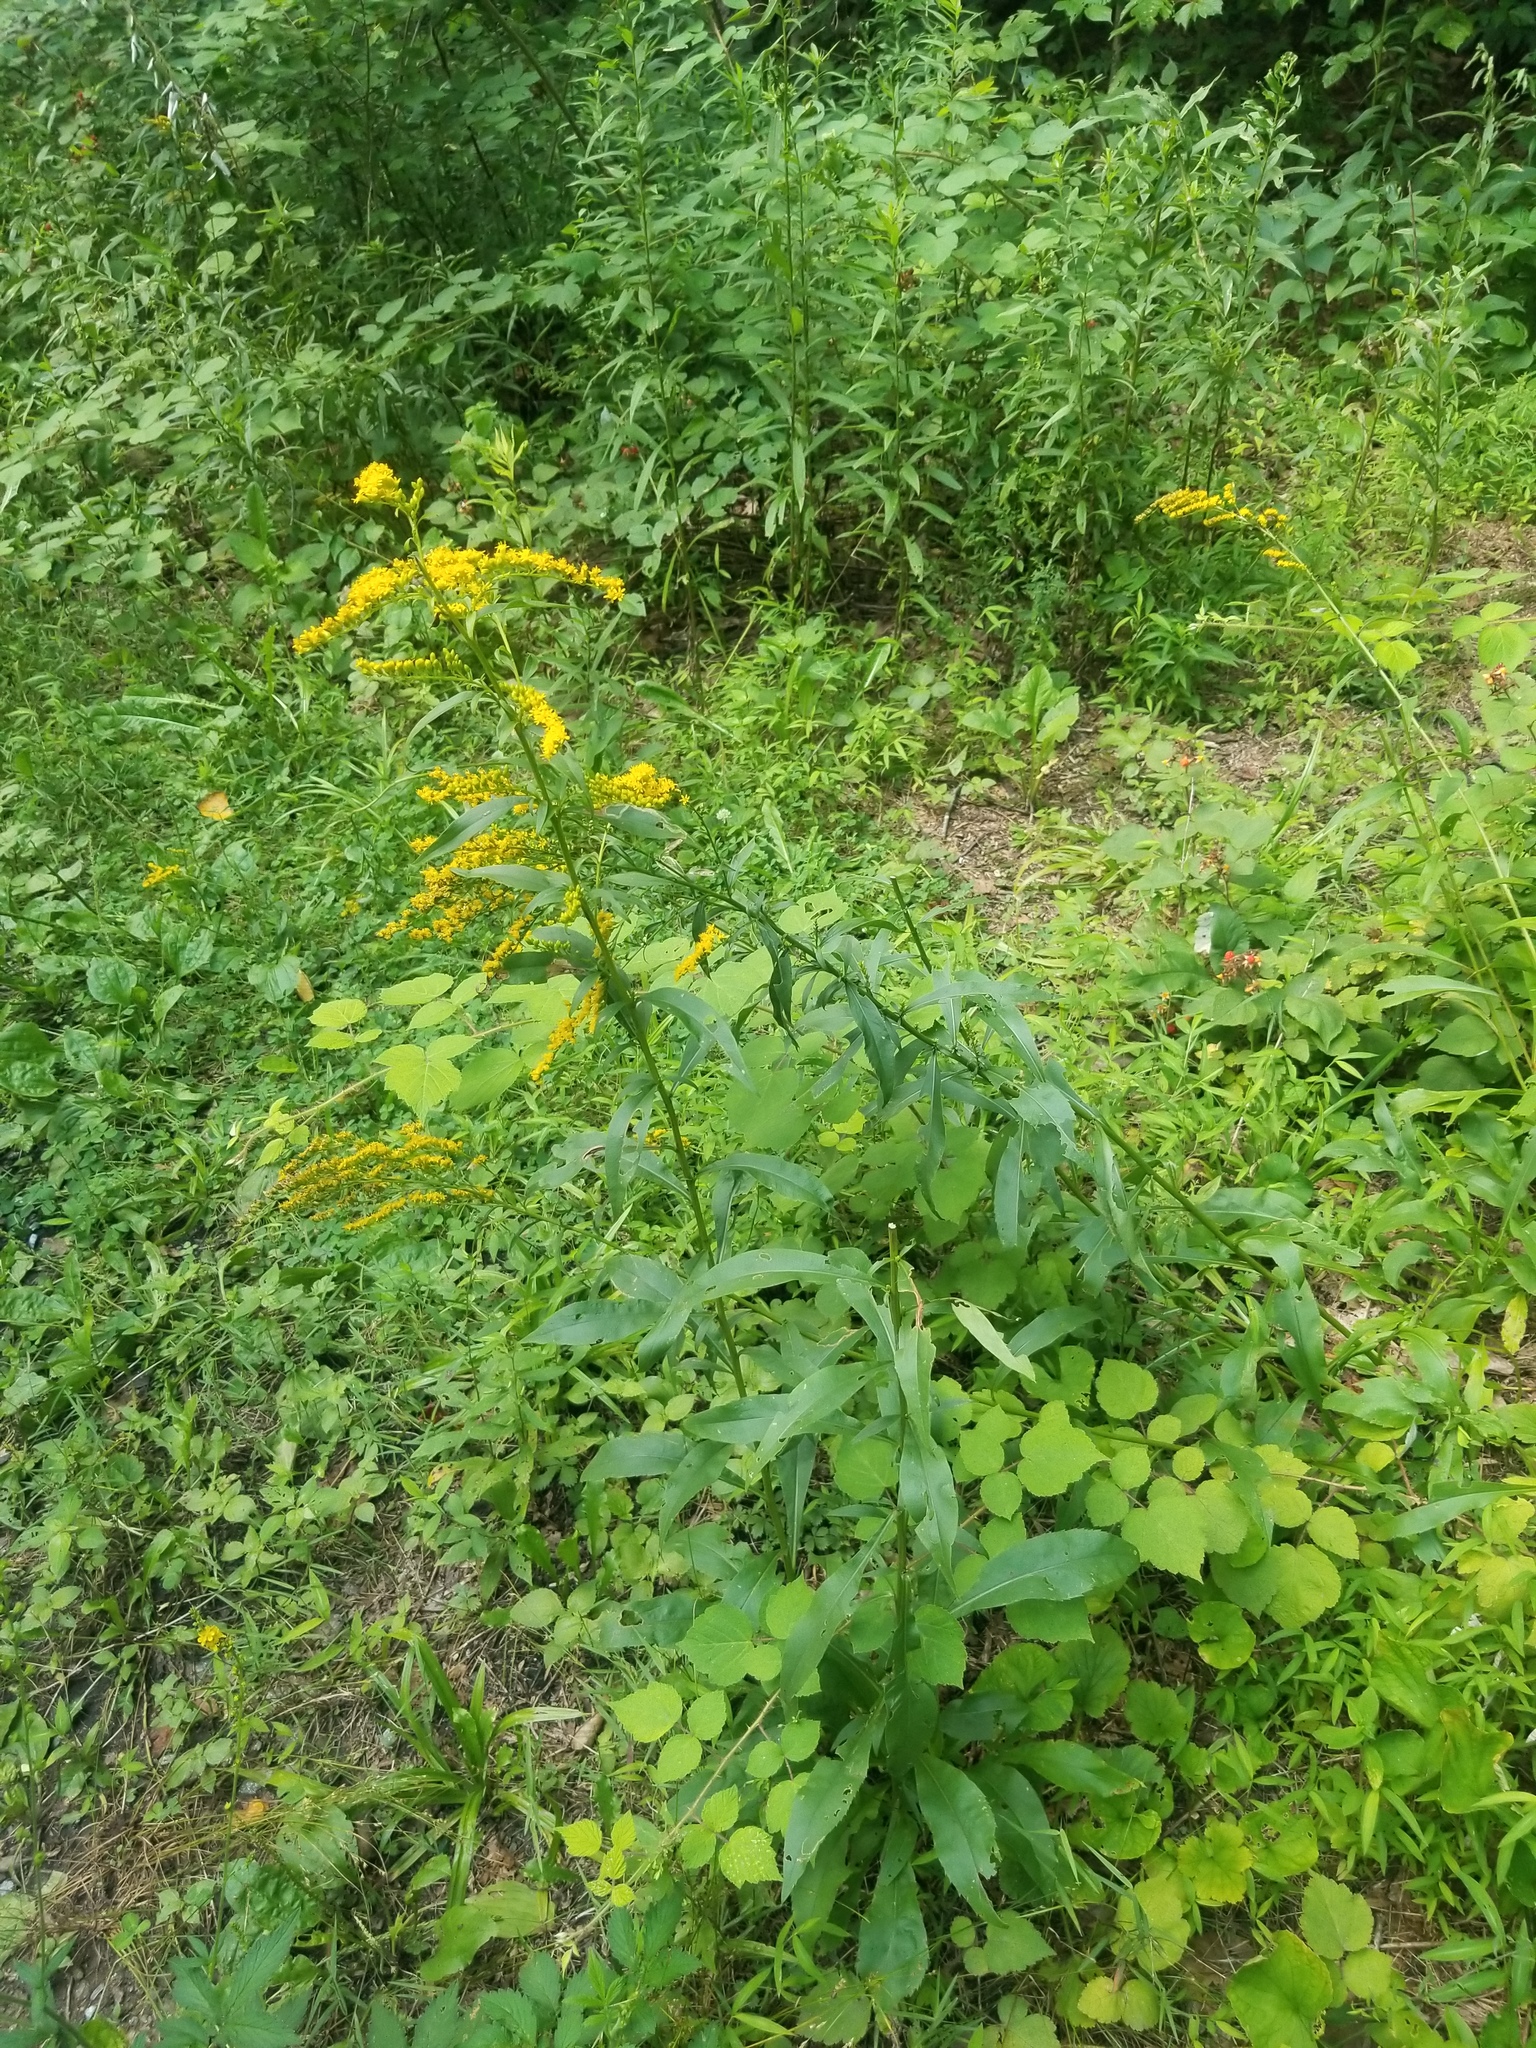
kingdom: Plantae
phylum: Tracheophyta
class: Magnoliopsida
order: Asterales
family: Asteraceae
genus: Solidago
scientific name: Solidago juncea
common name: Early goldenrod
